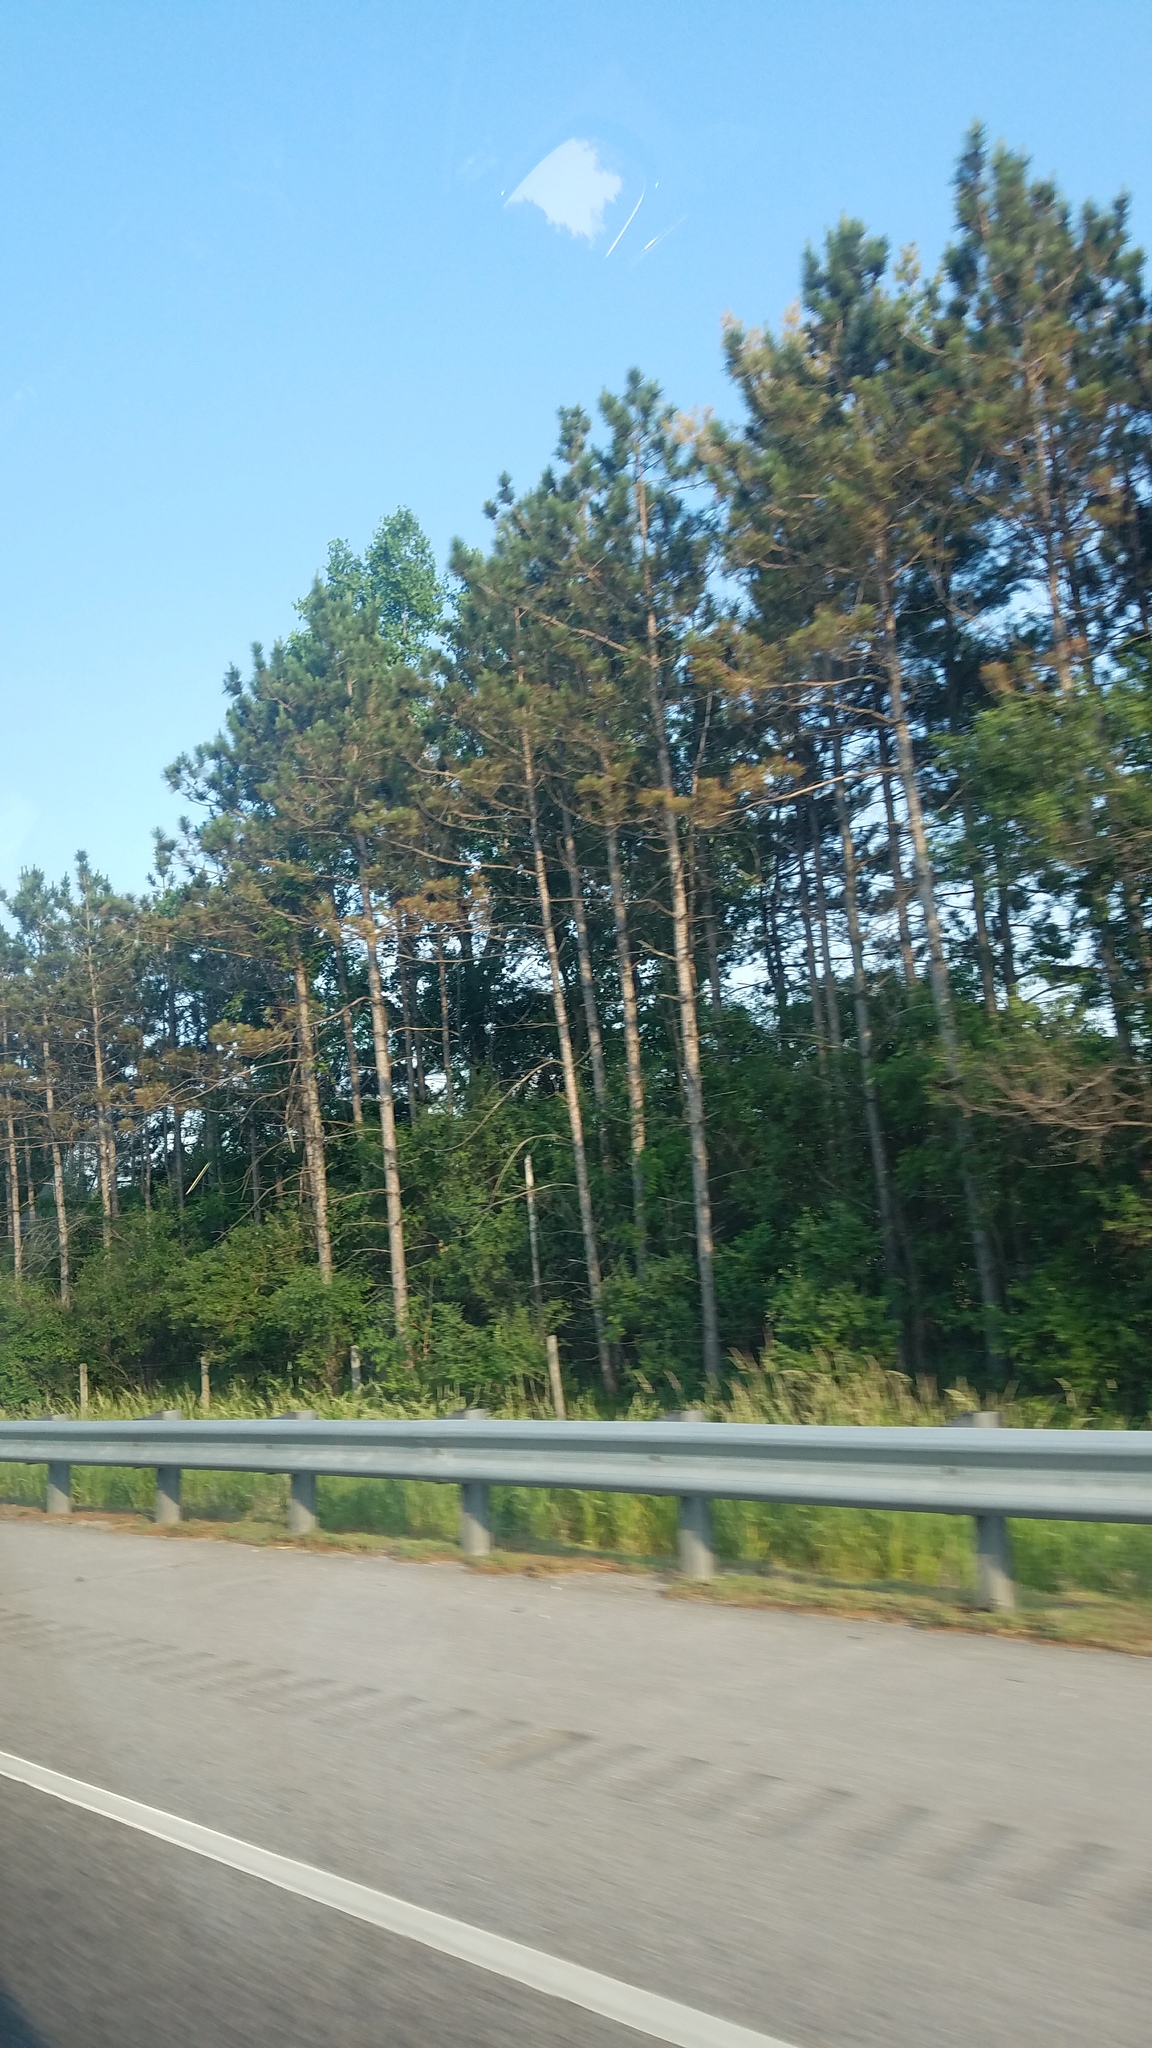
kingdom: Plantae
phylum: Tracheophyta
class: Pinopsida
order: Pinales
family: Pinaceae
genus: Pinus
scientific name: Pinus resinosa
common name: Norway pine
